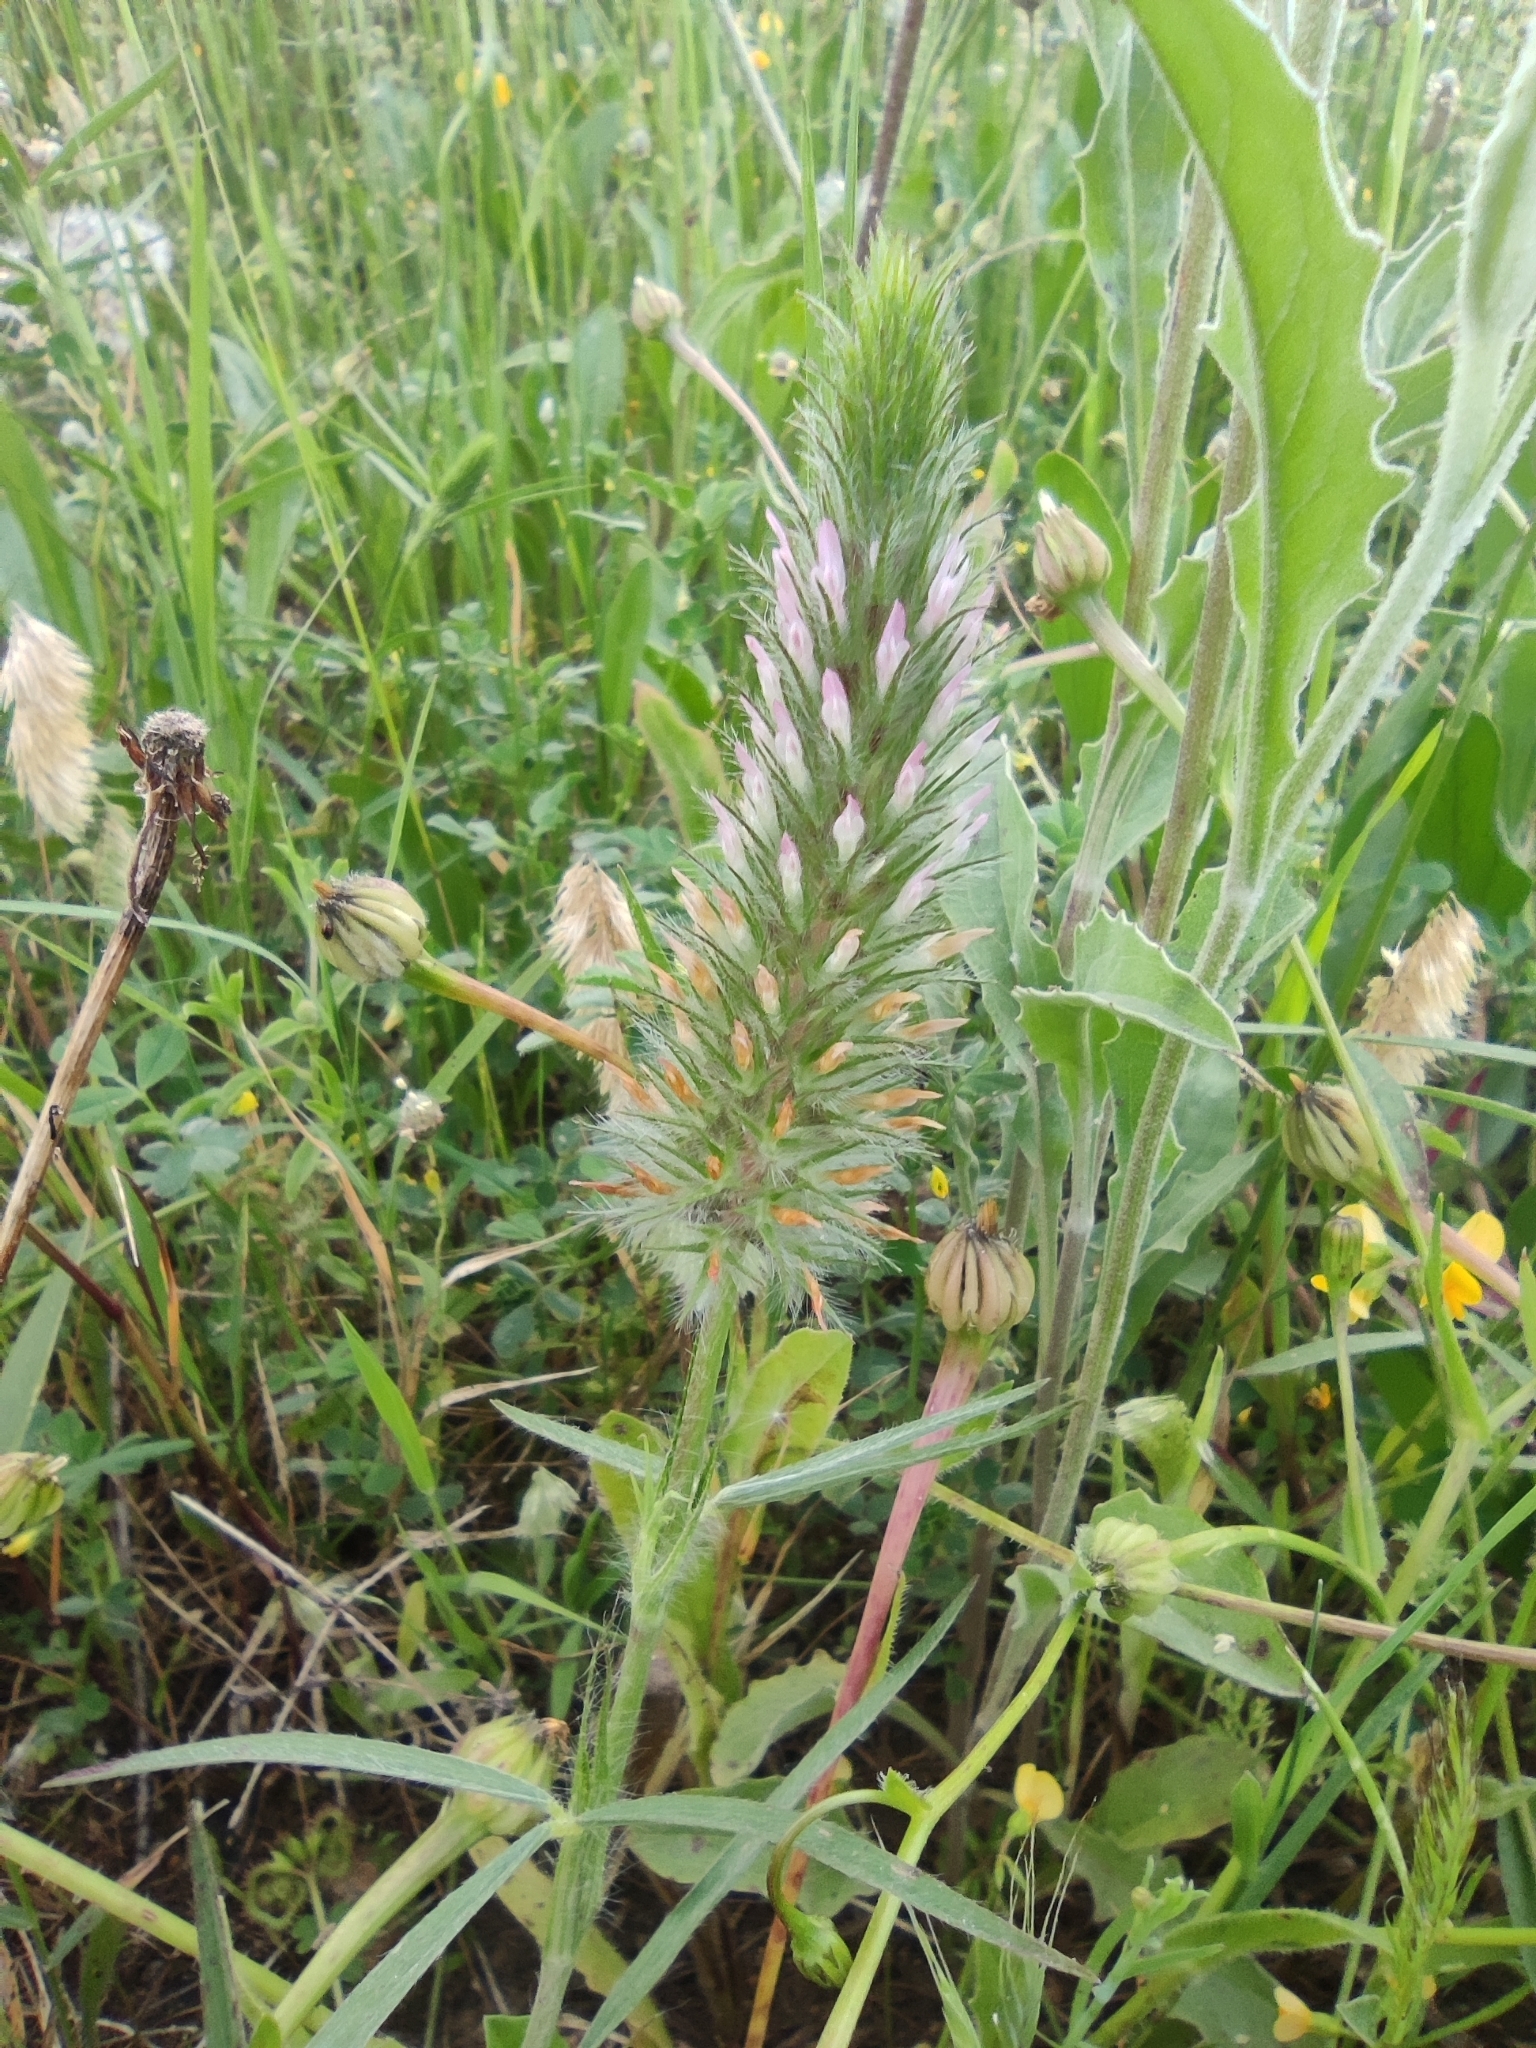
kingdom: Plantae
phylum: Tracheophyta
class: Magnoliopsida
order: Fabales
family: Fabaceae
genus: Trifolium
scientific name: Trifolium angustifolium
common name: Narrow clover
